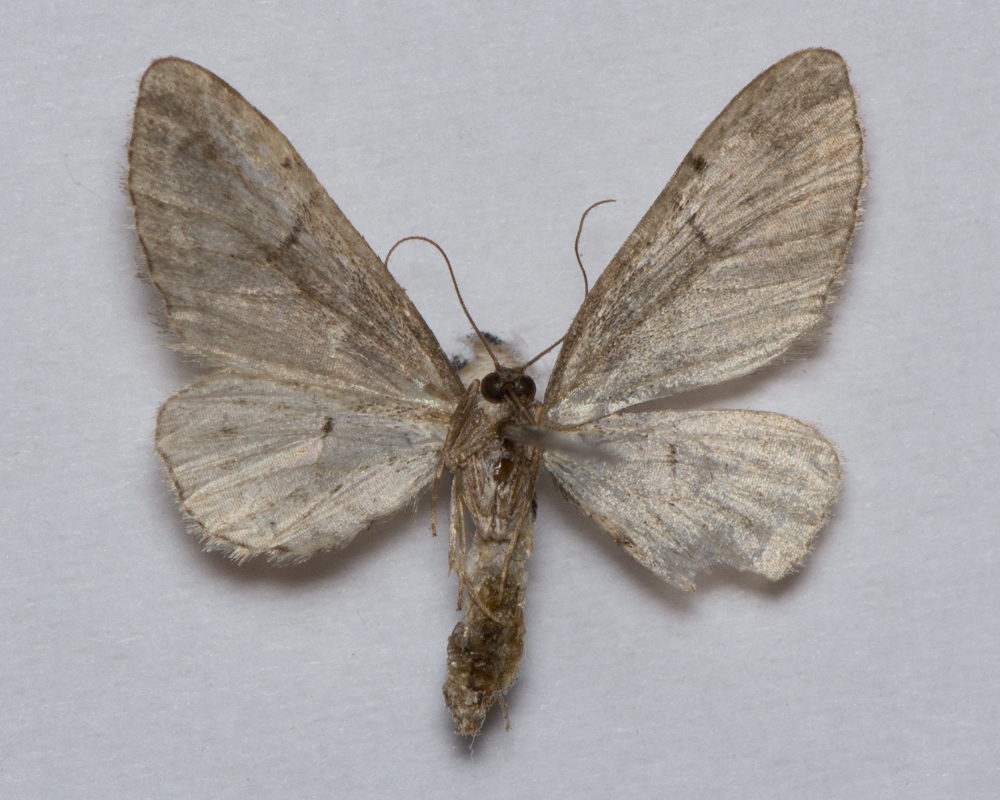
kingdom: Animalia
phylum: Arthropoda
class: Insecta
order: Lepidoptera
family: Geometridae
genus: Eupithecia
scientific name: Eupithecia sinuosaria
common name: Goosefoot pug
